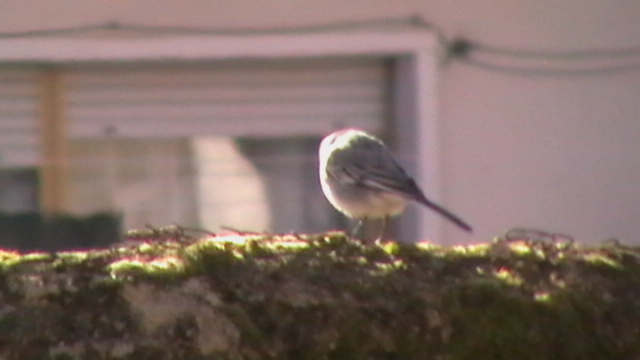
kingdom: Animalia
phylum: Chordata
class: Aves
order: Passeriformes
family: Motacillidae
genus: Motacilla
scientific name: Motacilla alba
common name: White wagtail
